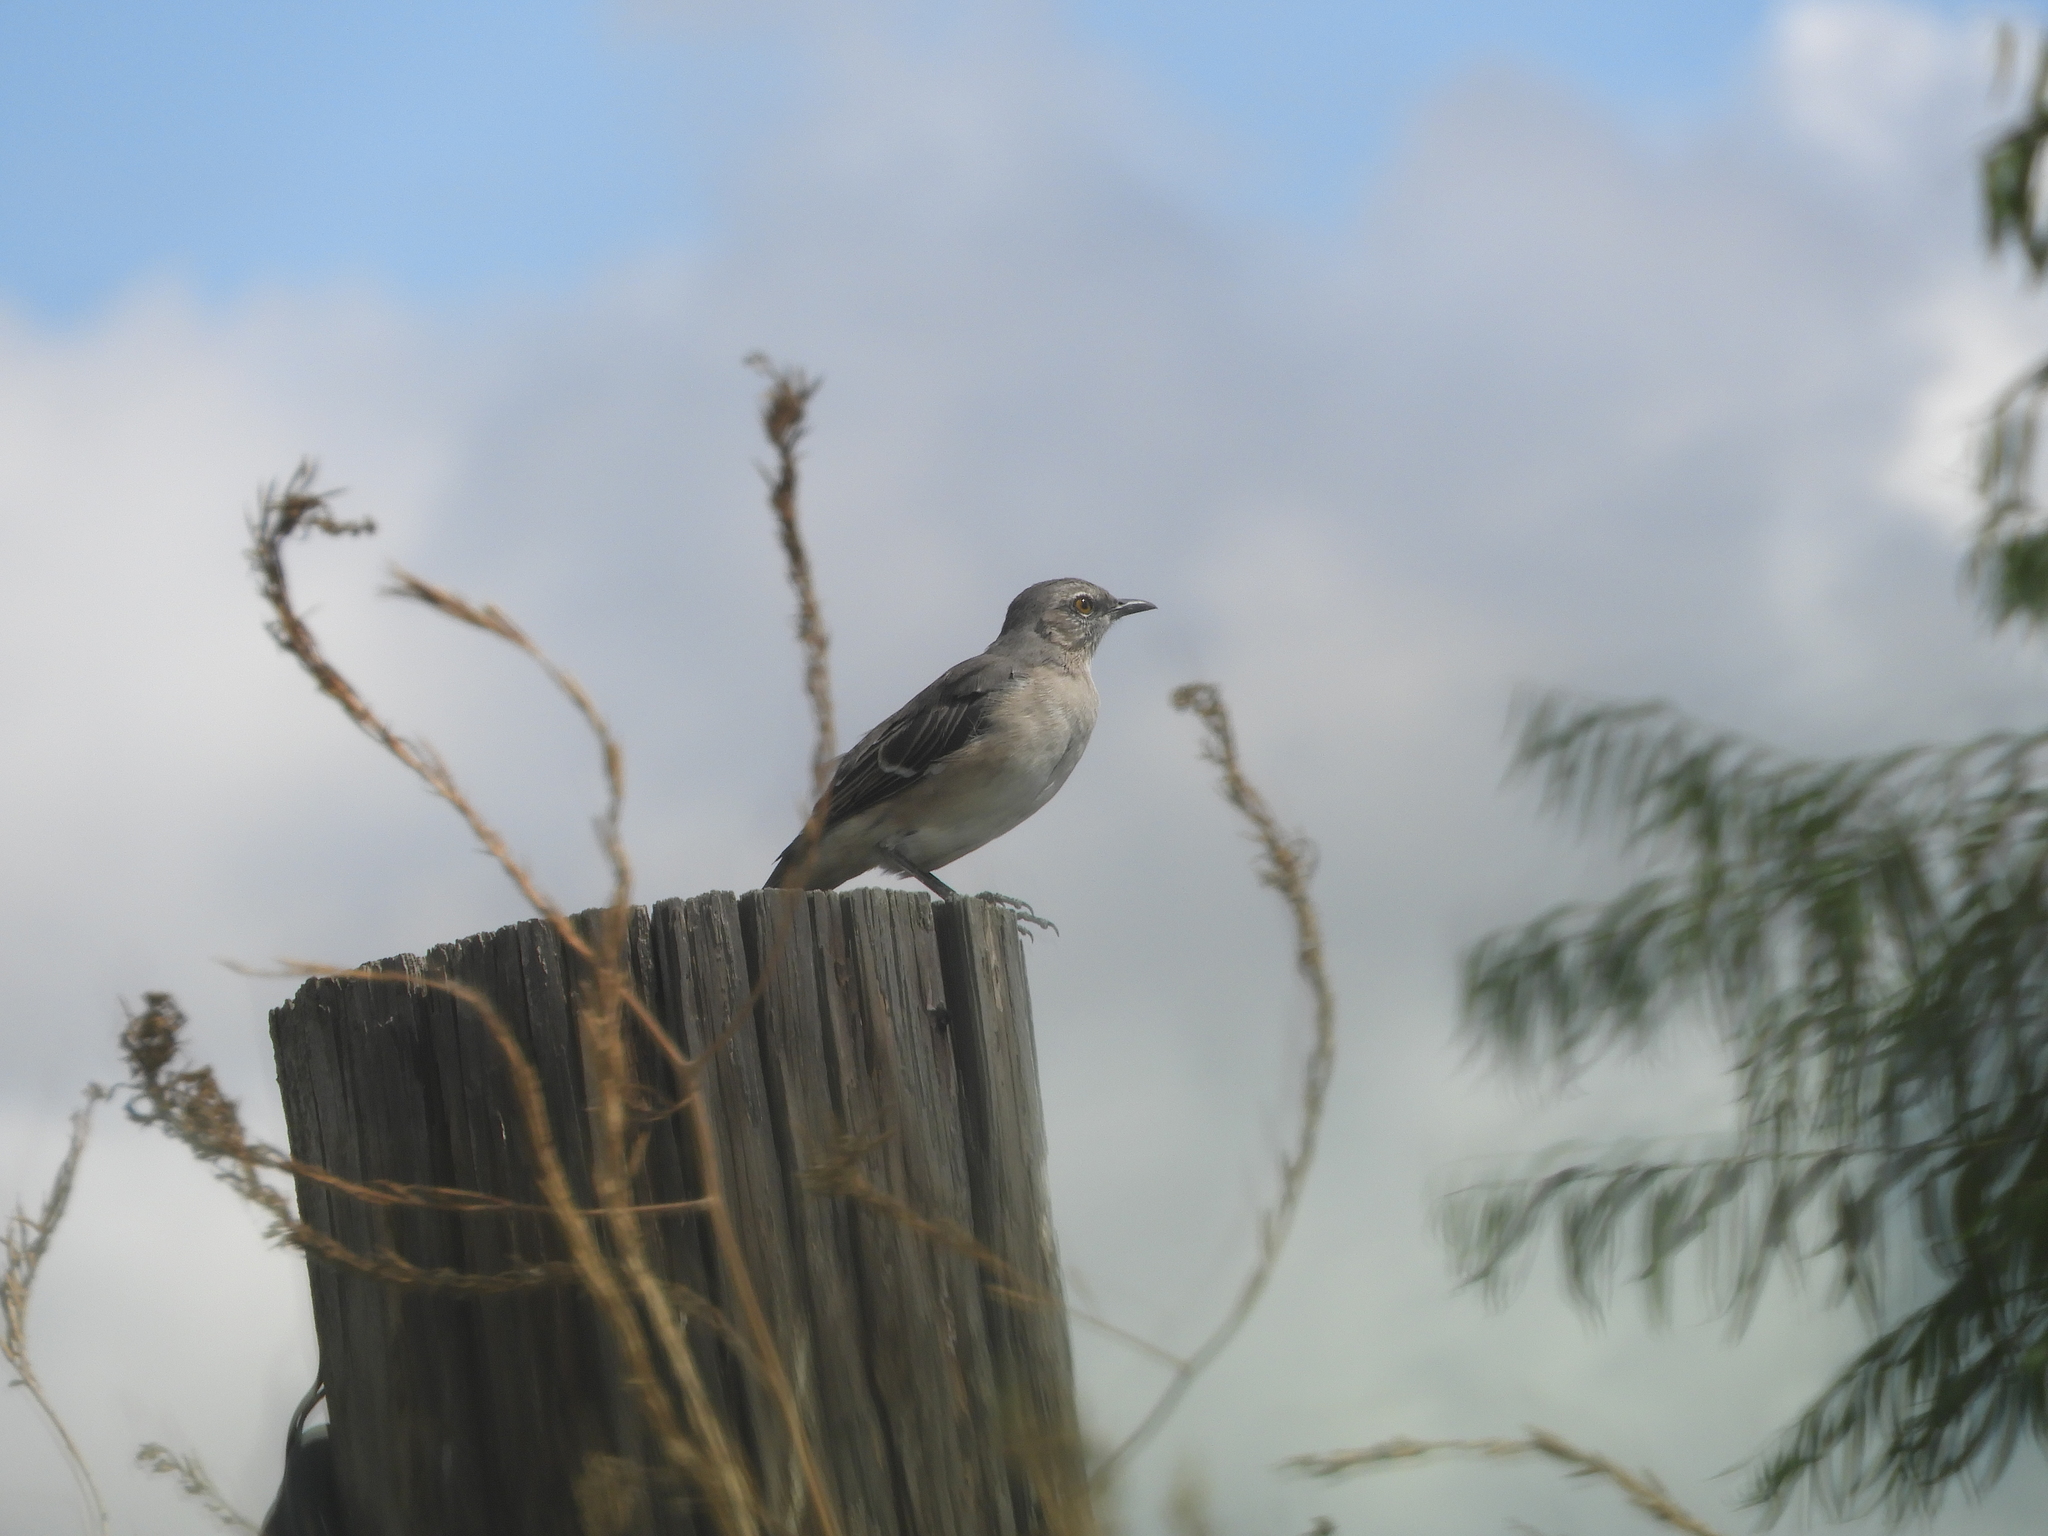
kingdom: Animalia
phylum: Chordata
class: Aves
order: Passeriformes
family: Mimidae
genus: Mimus
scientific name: Mimus polyglottos
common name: Northern mockingbird
